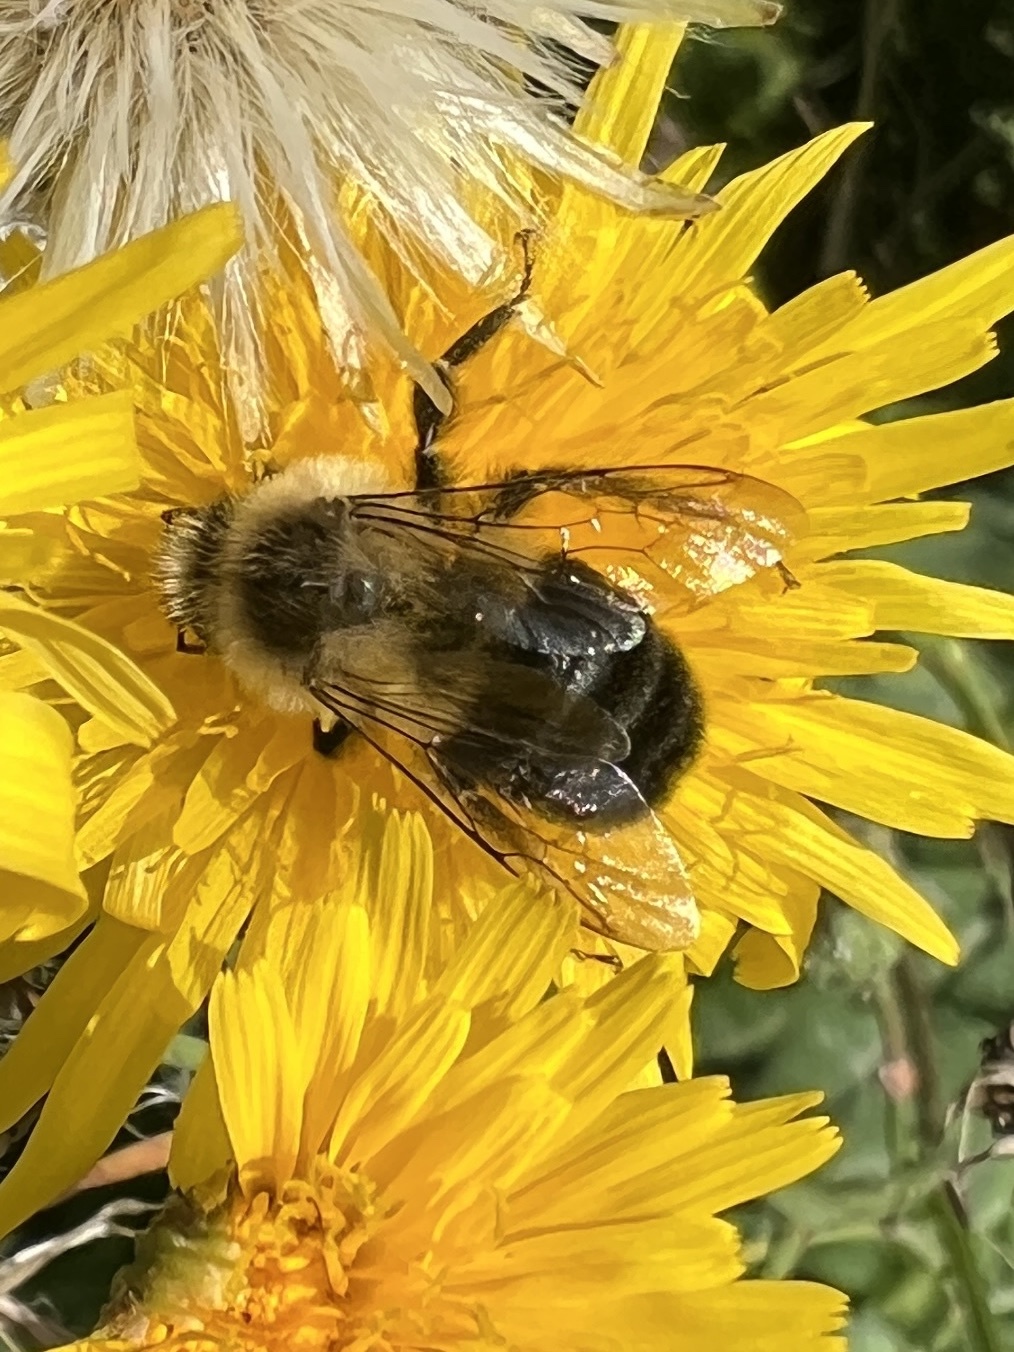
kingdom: Animalia
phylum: Arthropoda
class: Insecta
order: Hymenoptera
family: Apidae
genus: Bombus
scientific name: Bombus impatiens
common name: Common eastern bumble bee
